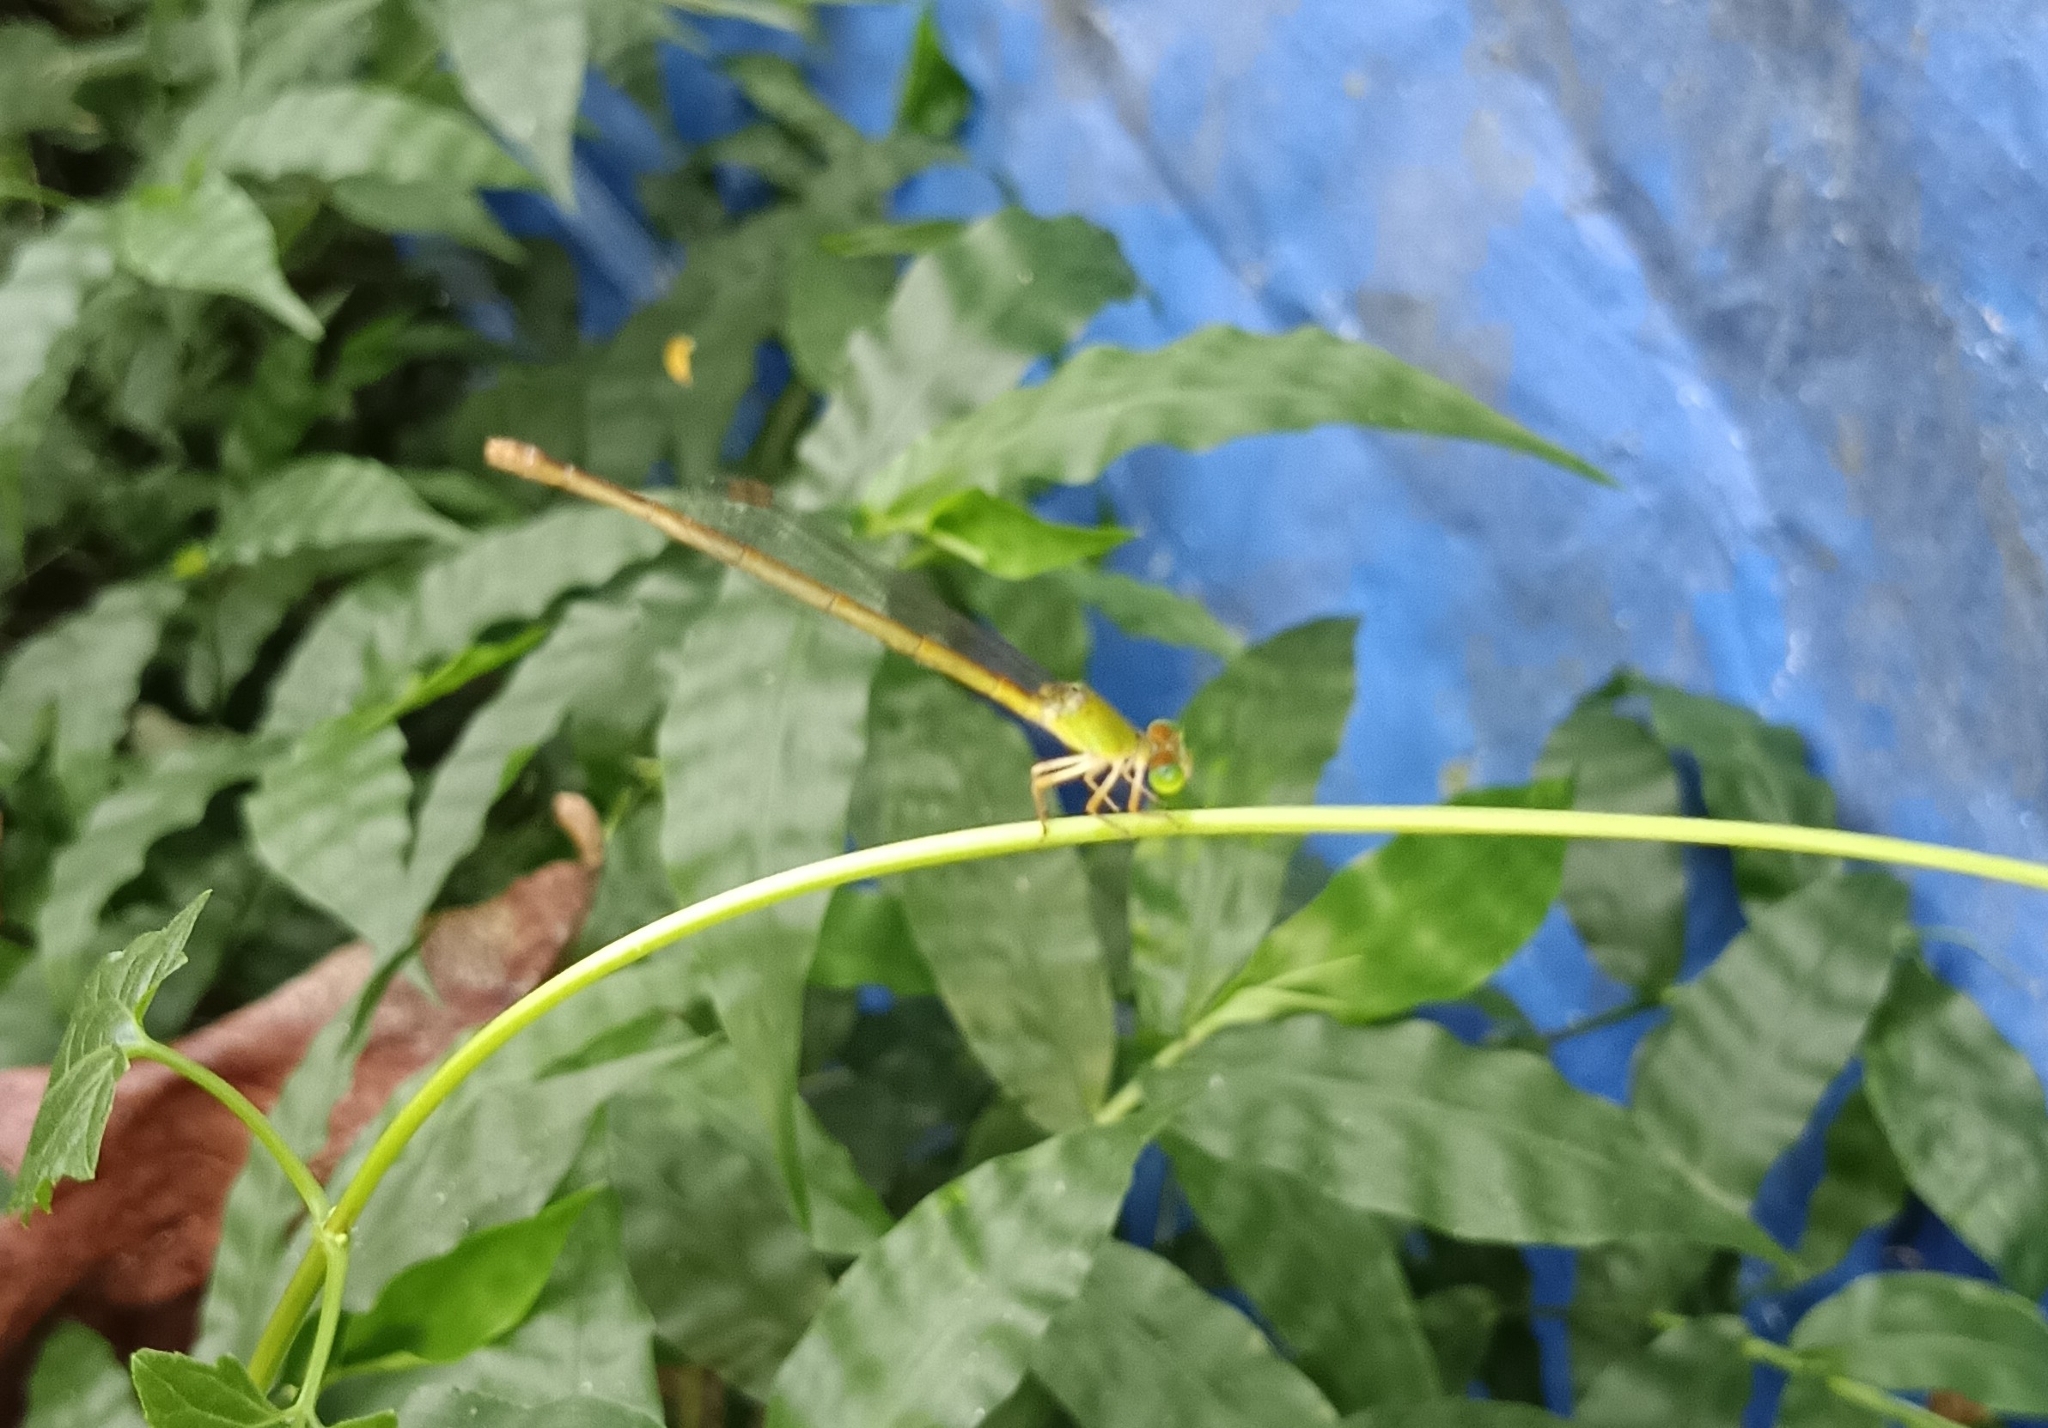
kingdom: Animalia
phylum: Arthropoda
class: Insecta
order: Odonata
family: Coenagrionidae
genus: Ceriagrion
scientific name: Ceriagrion coromandelianum
